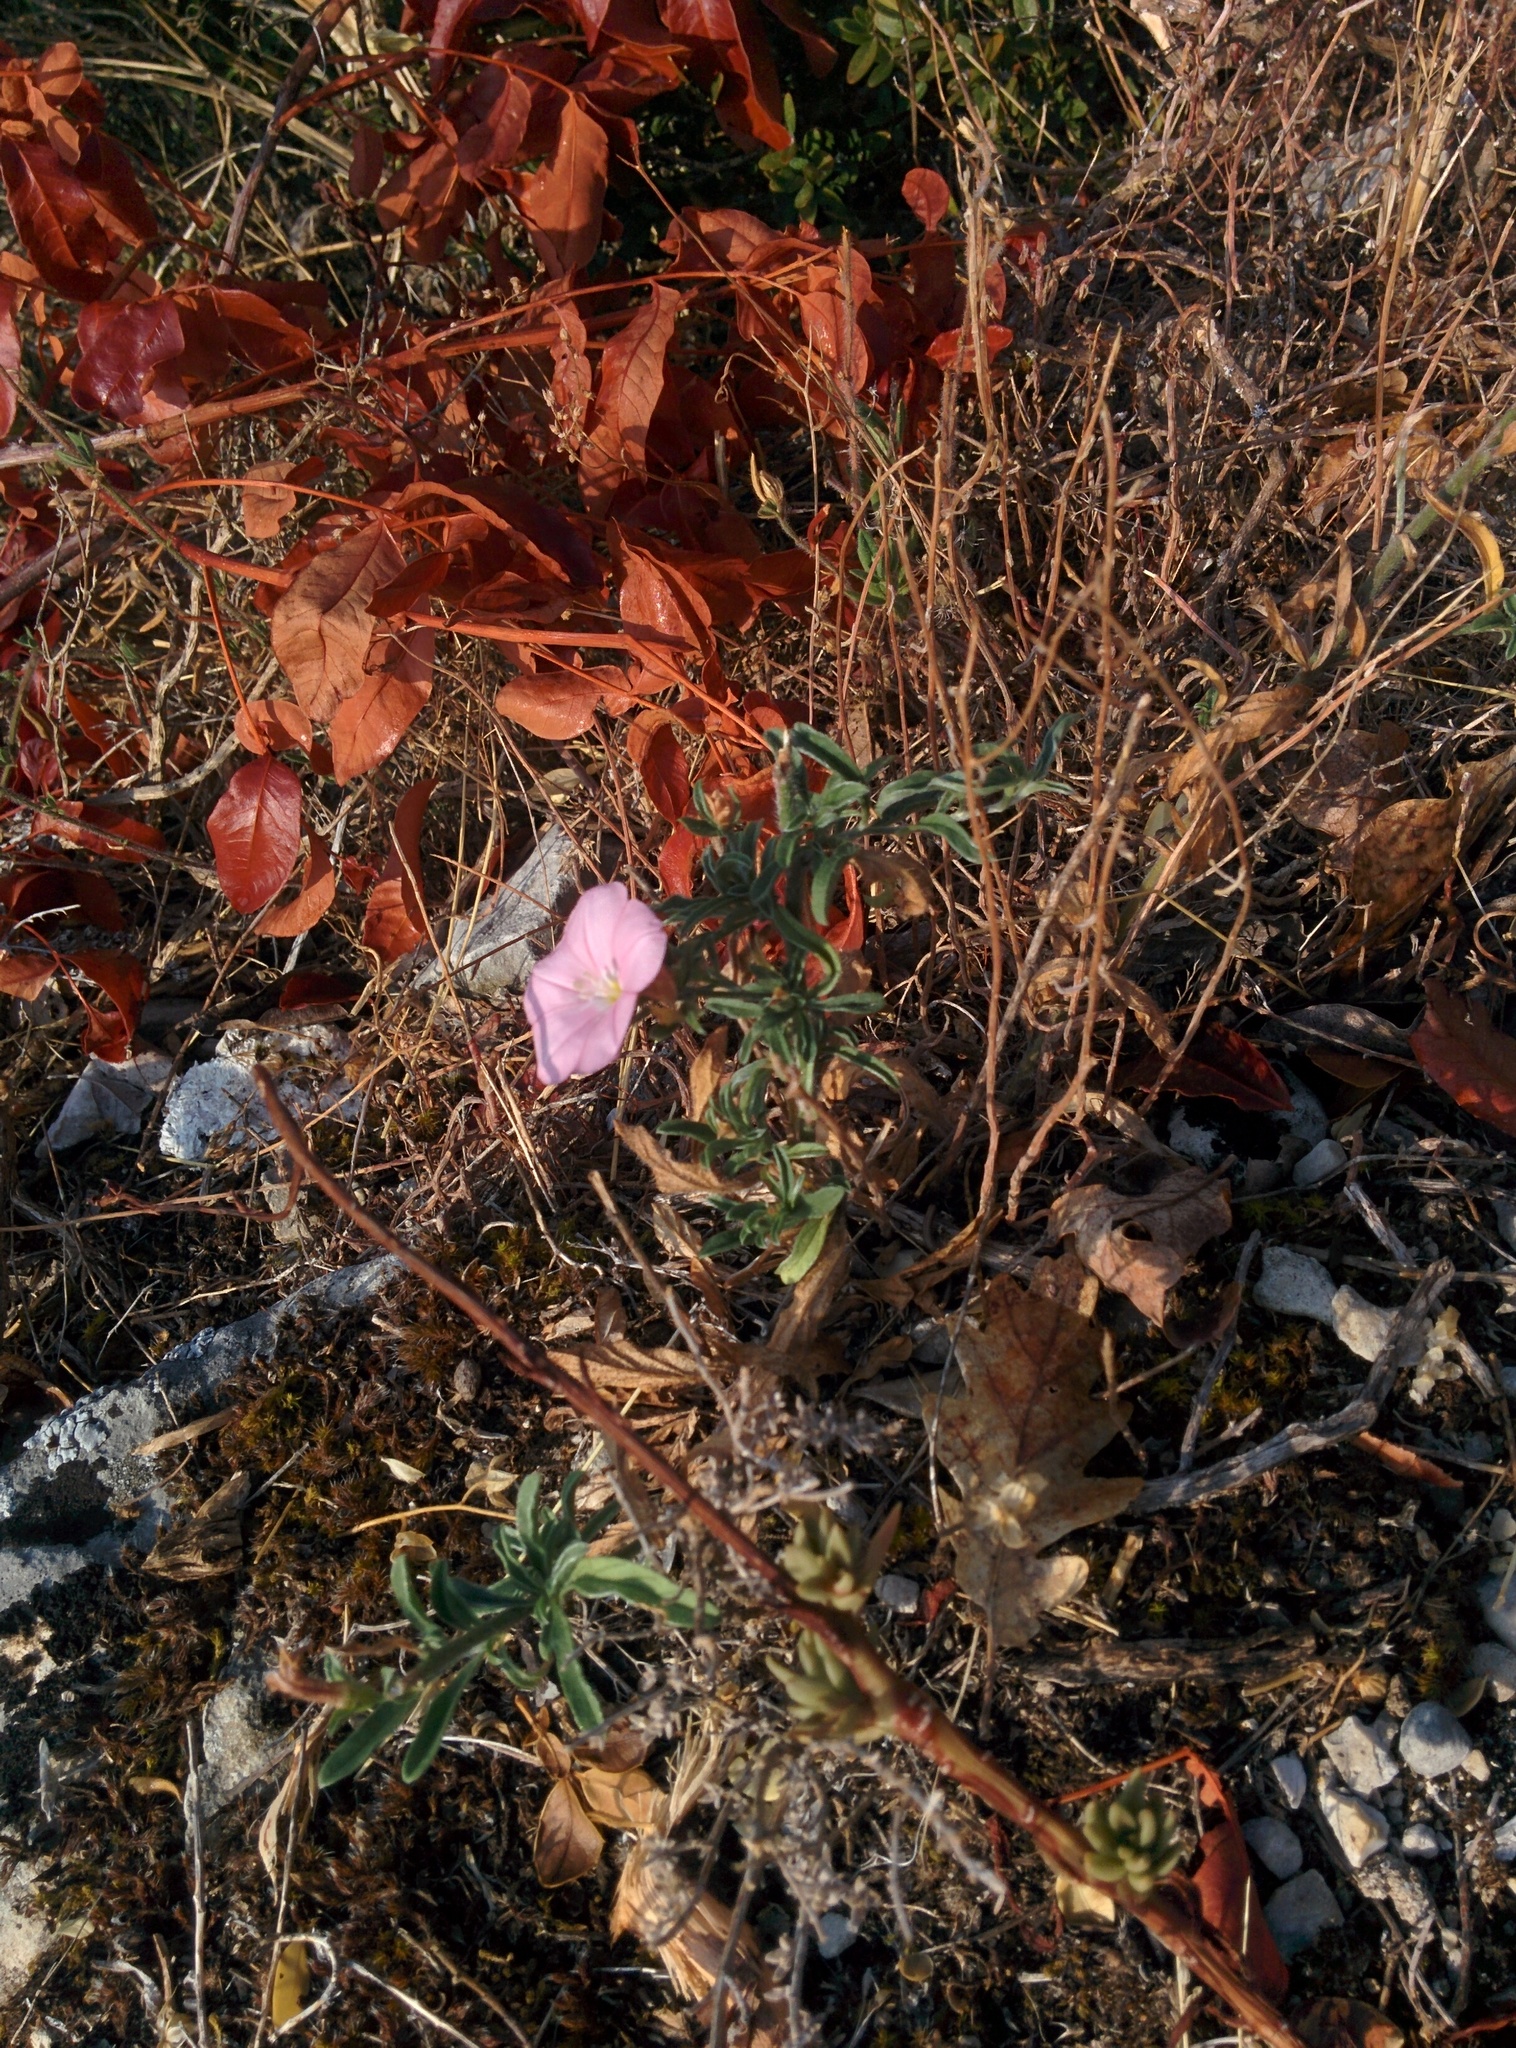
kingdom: Plantae
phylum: Tracheophyta
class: Magnoliopsida
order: Solanales
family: Convolvulaceae
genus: Convolvulus
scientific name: Convolvulus cantabrica
